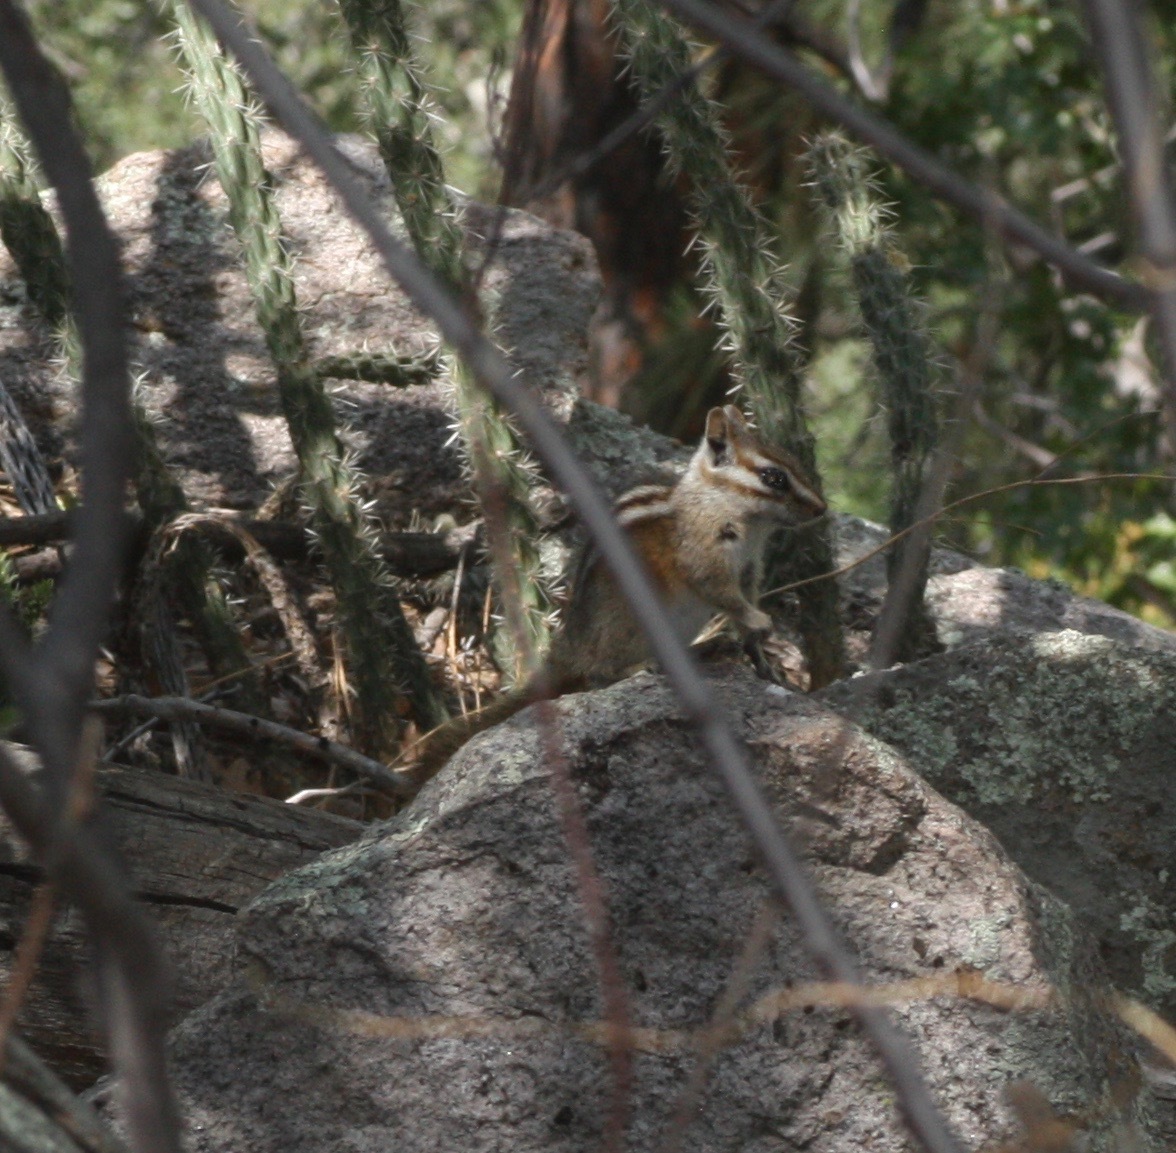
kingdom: Animalia
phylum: Chordata
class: Mammalia
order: Rodentia
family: Sciuridae
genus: Tamias
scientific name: Tamias quadrivittatus
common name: Colorado chipmunk
